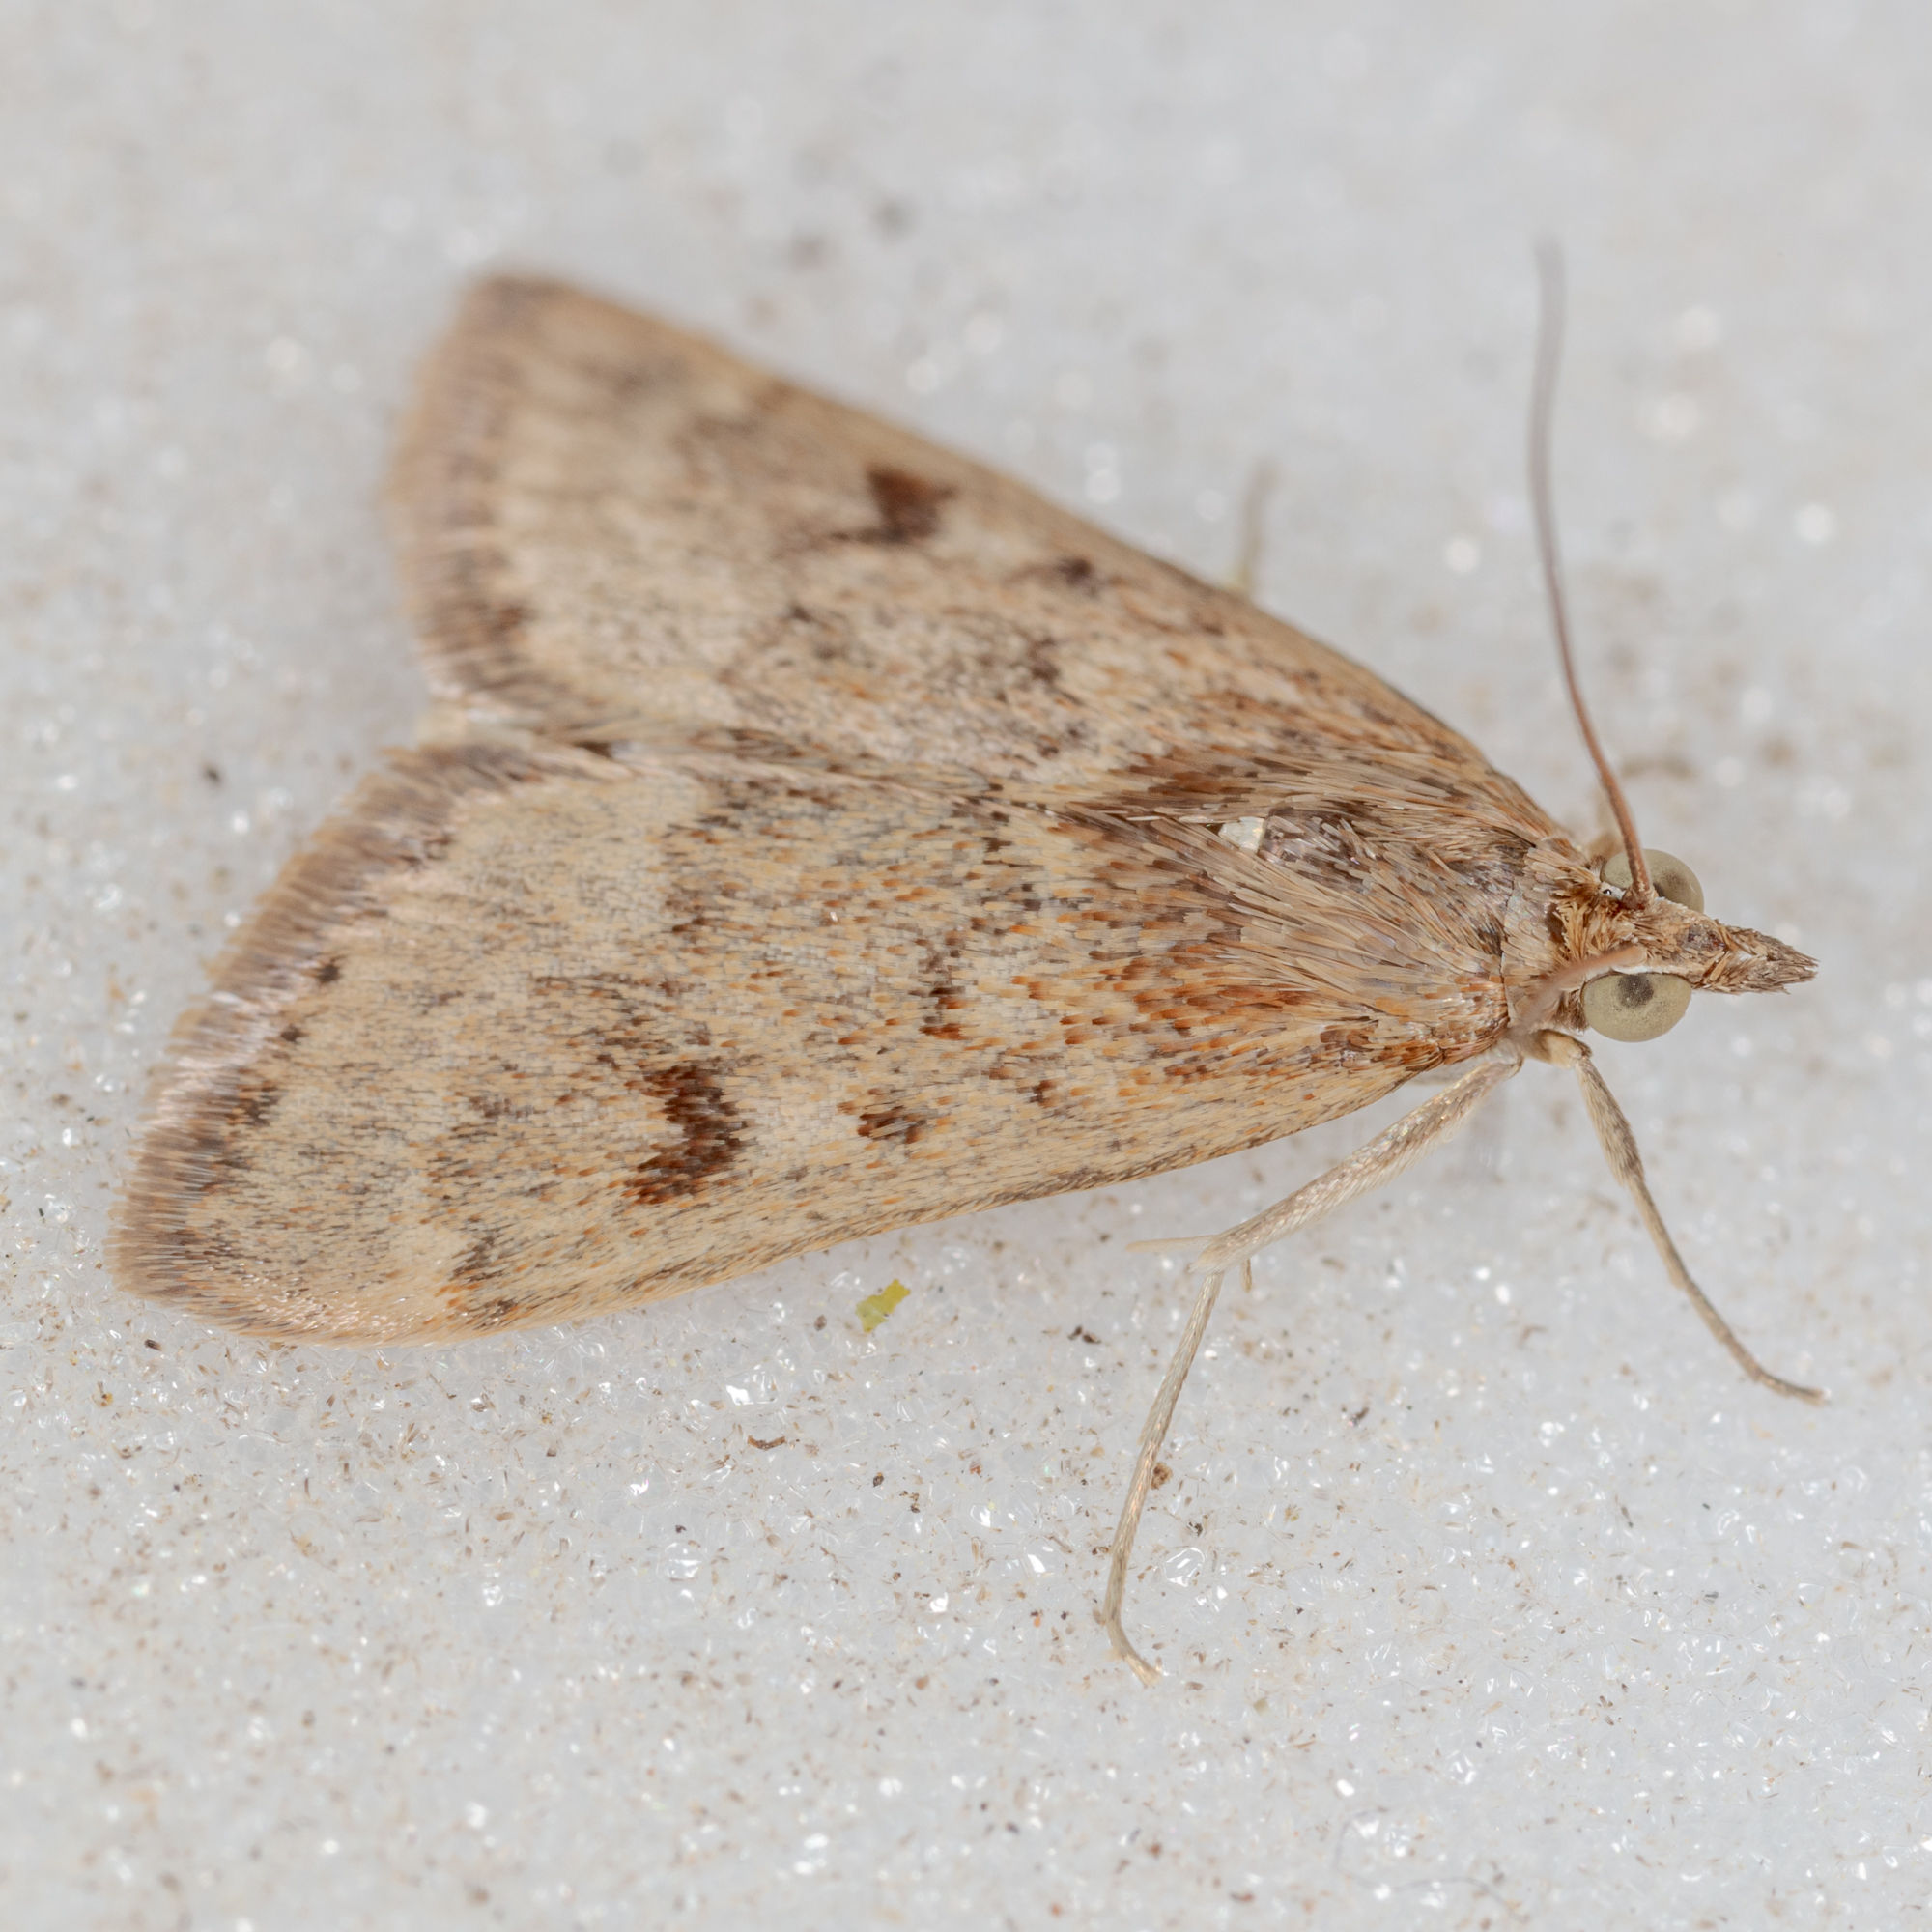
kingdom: Animalia
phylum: Arthropoda
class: Insecta
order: Lepidoptera
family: Crambidae
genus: Achyra
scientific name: Achyra rantalis
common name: Garden webworm
